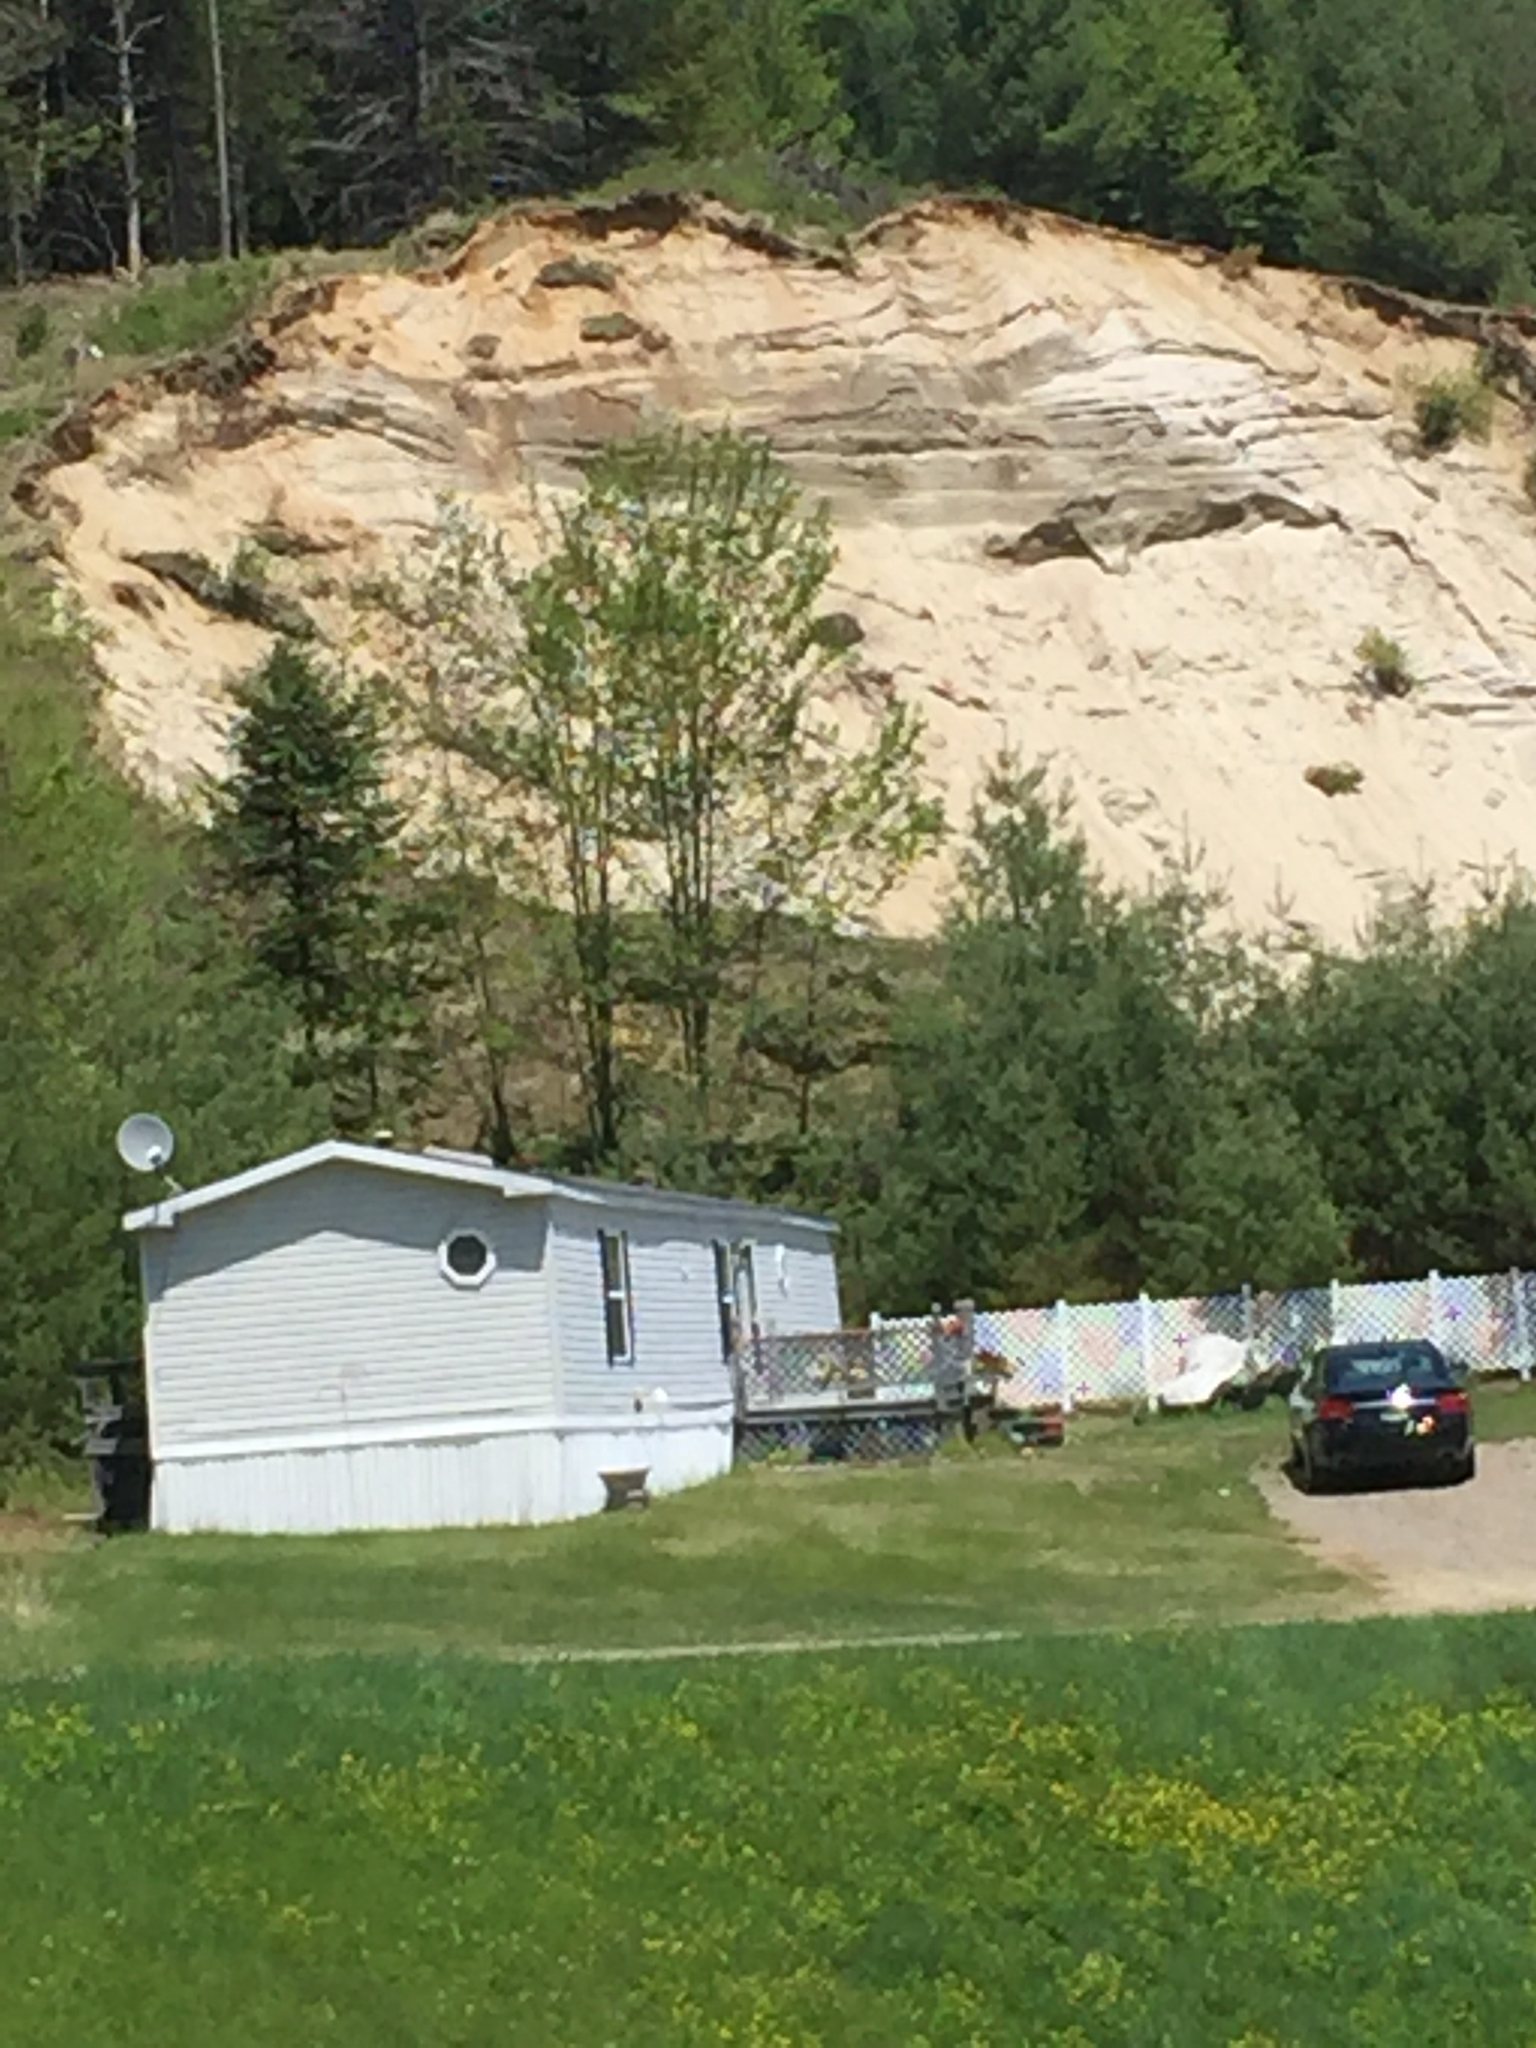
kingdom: Animalia
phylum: Chordata
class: Aves
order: Passeriformes
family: Hirundinidae
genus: Riparia
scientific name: Riparia riparia
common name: Sand martin
